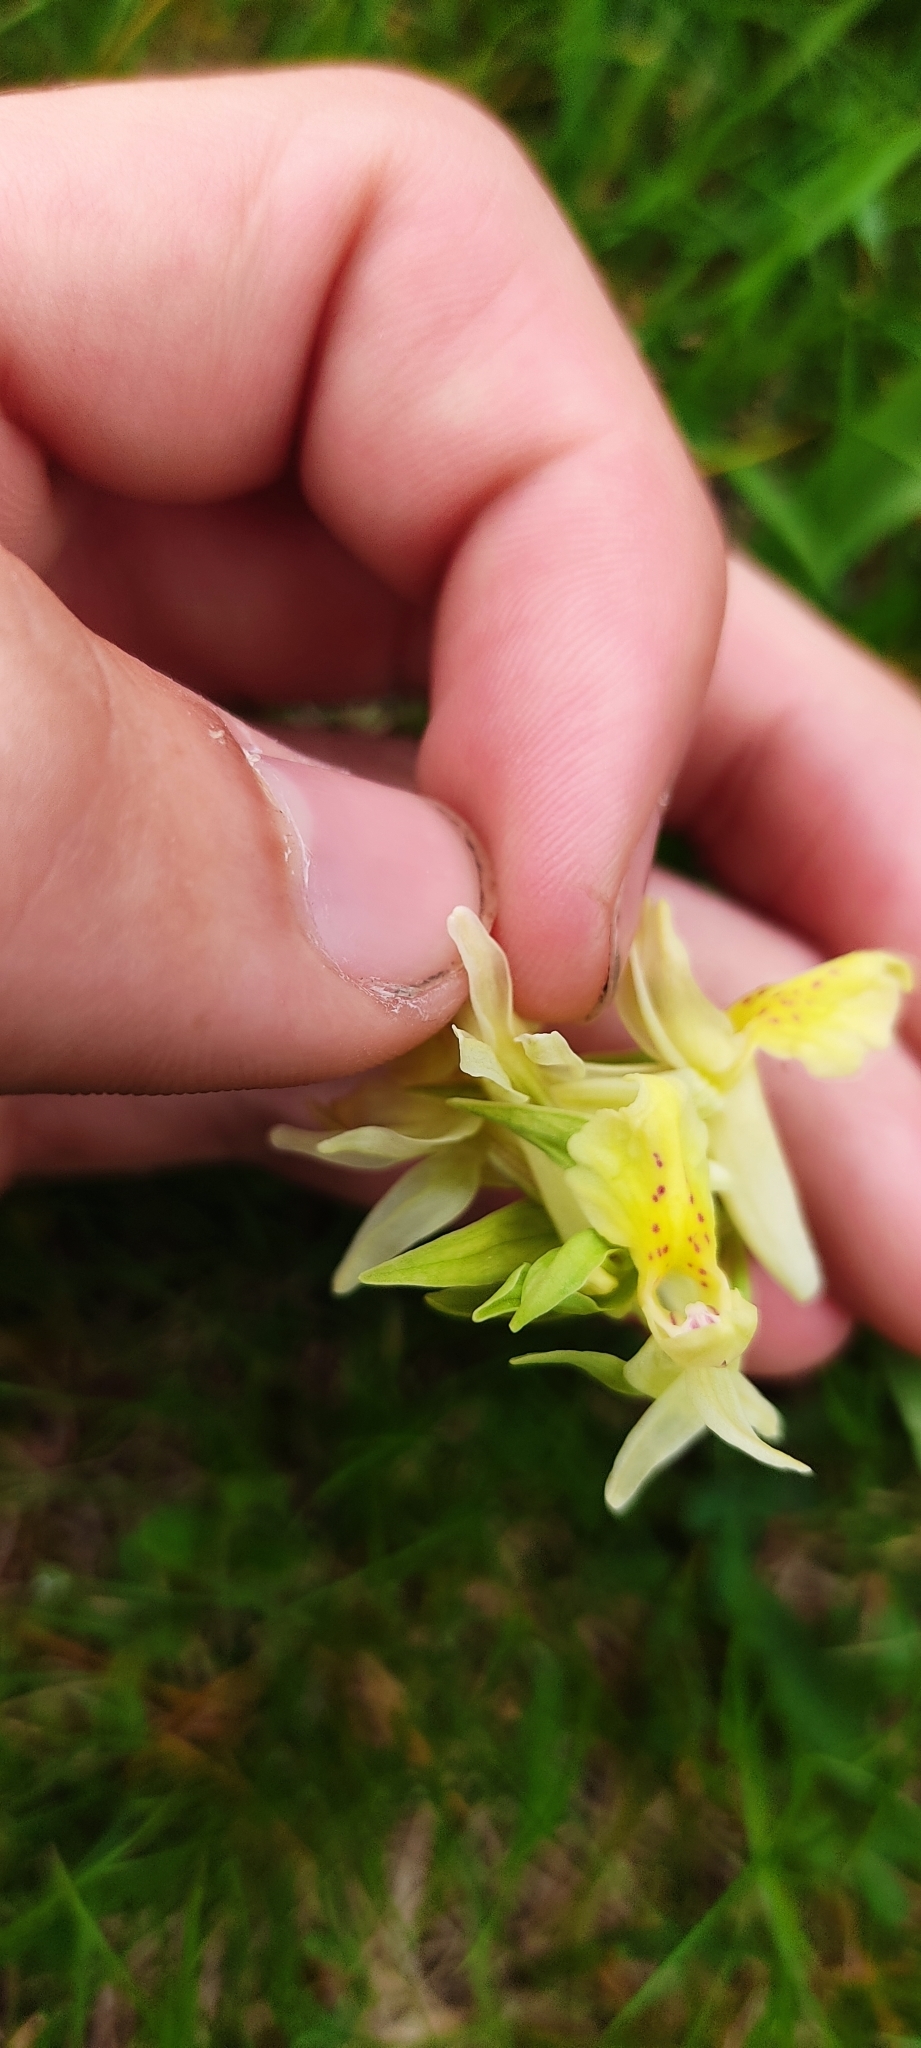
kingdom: Plantae
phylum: Tracheophyta
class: Liliopsida
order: Asparagales
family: Orchidaceae
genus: Dactylorhiza
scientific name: Dactylorhiza sambucina
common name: Elder-flowered orchid
